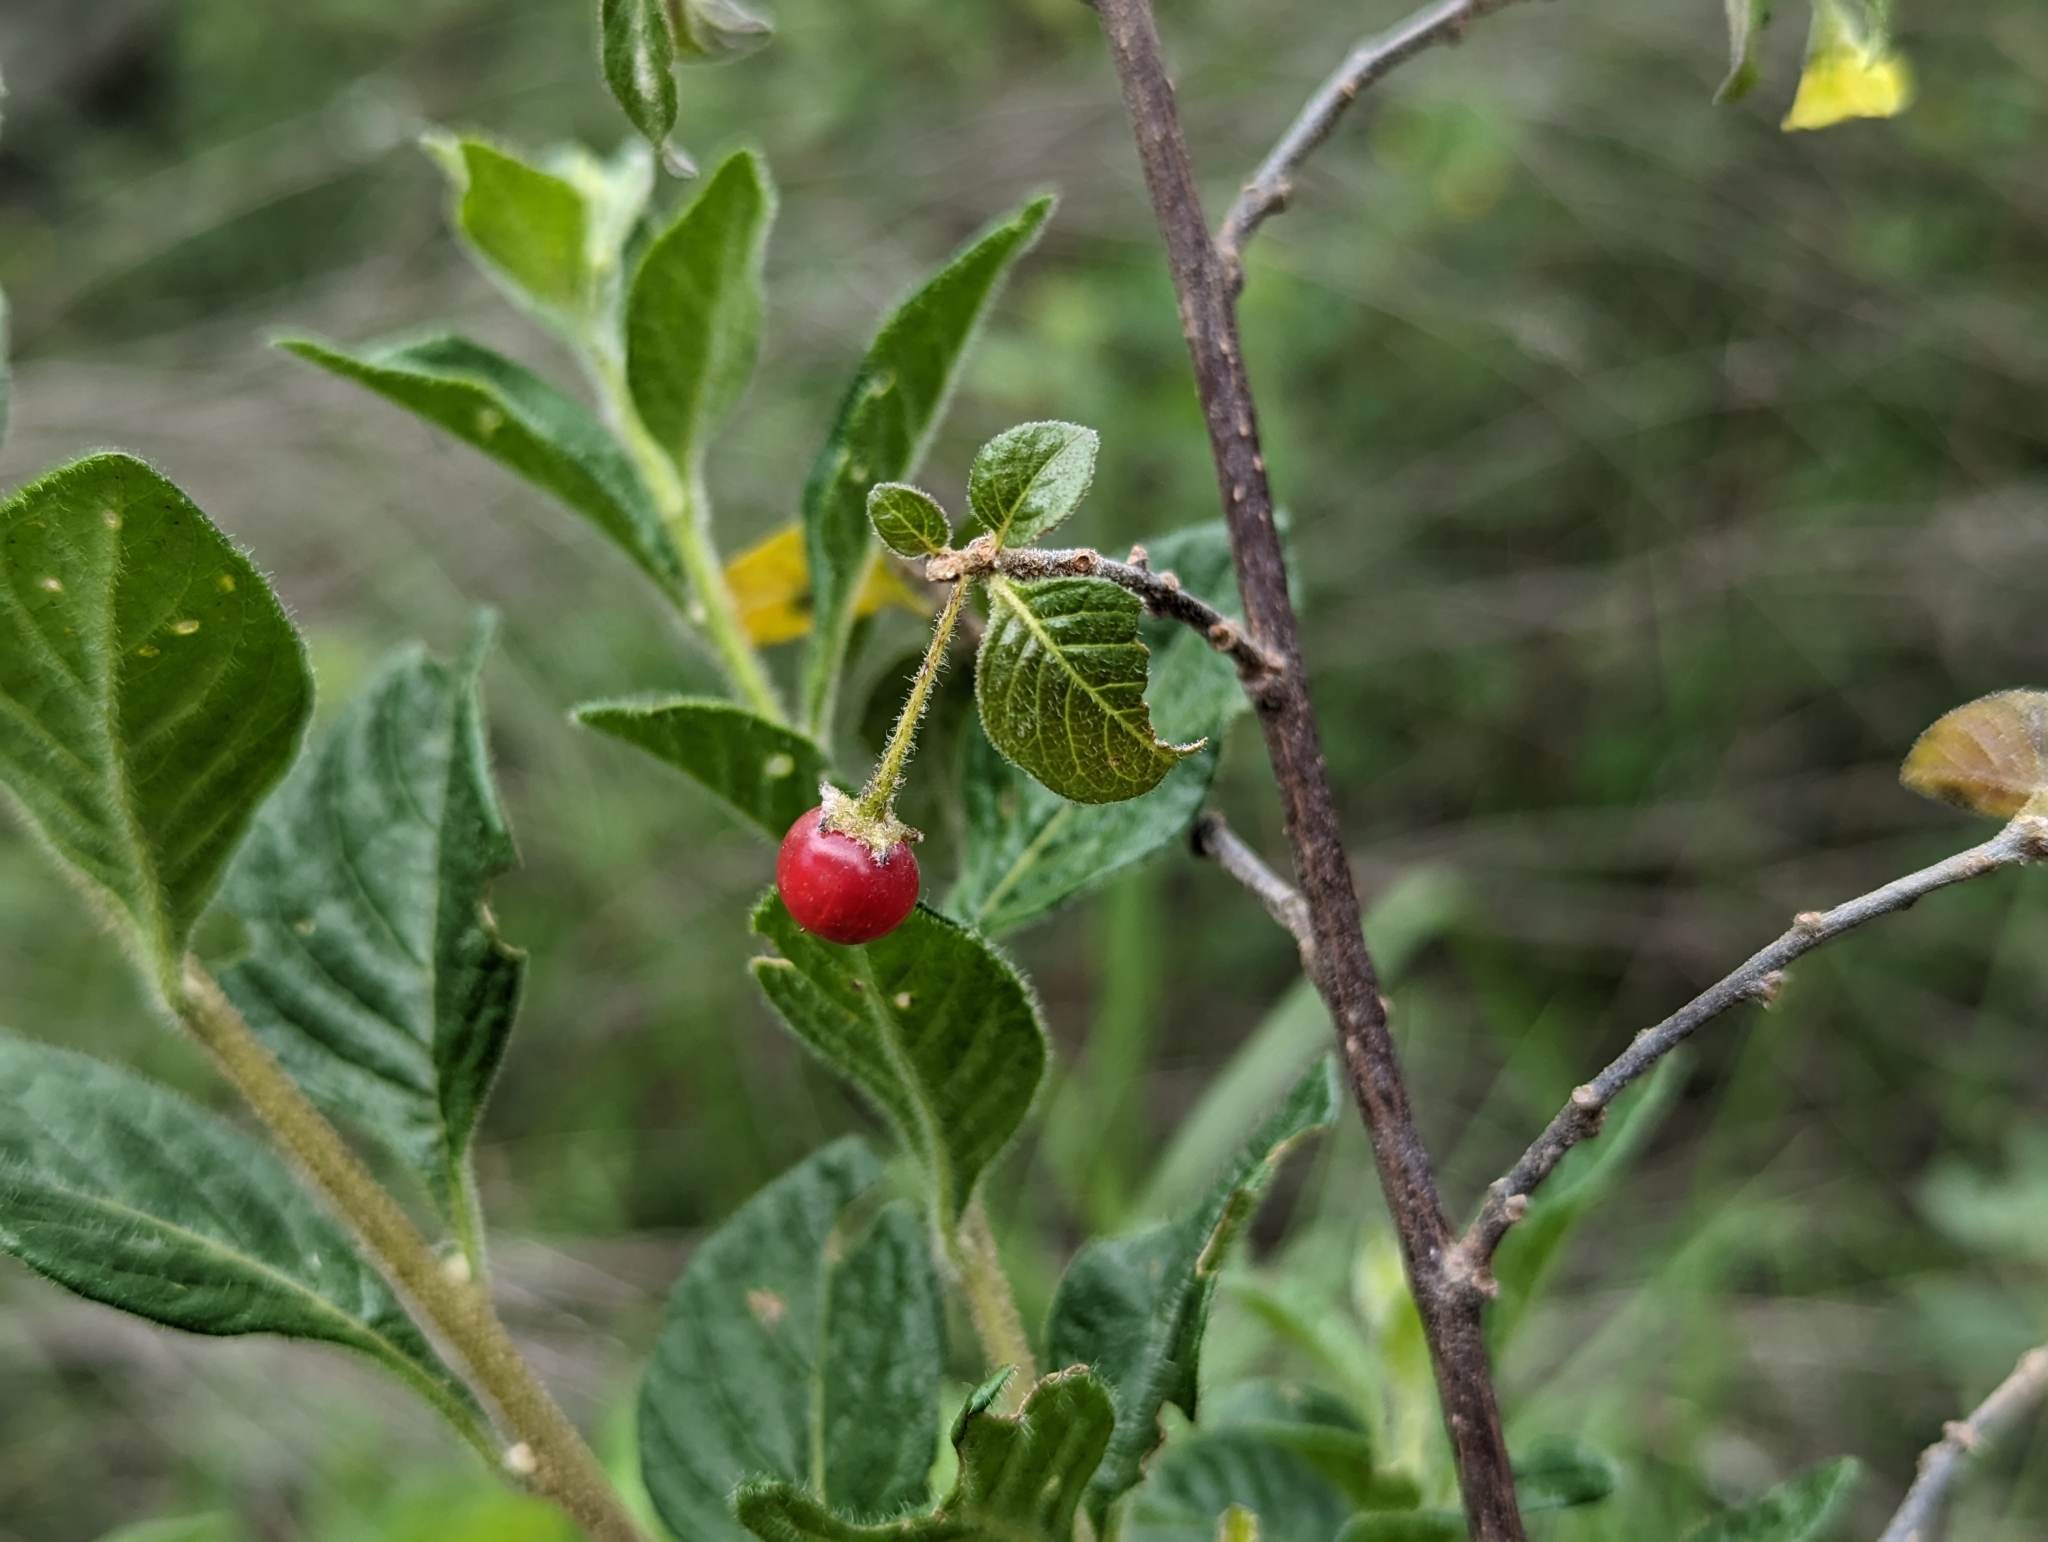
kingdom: Plantae
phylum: Tracheophyta
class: Magnoliopsida
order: Solanales
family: Solanaceae
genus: Capsicum
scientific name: Capsicum rhomboideum
